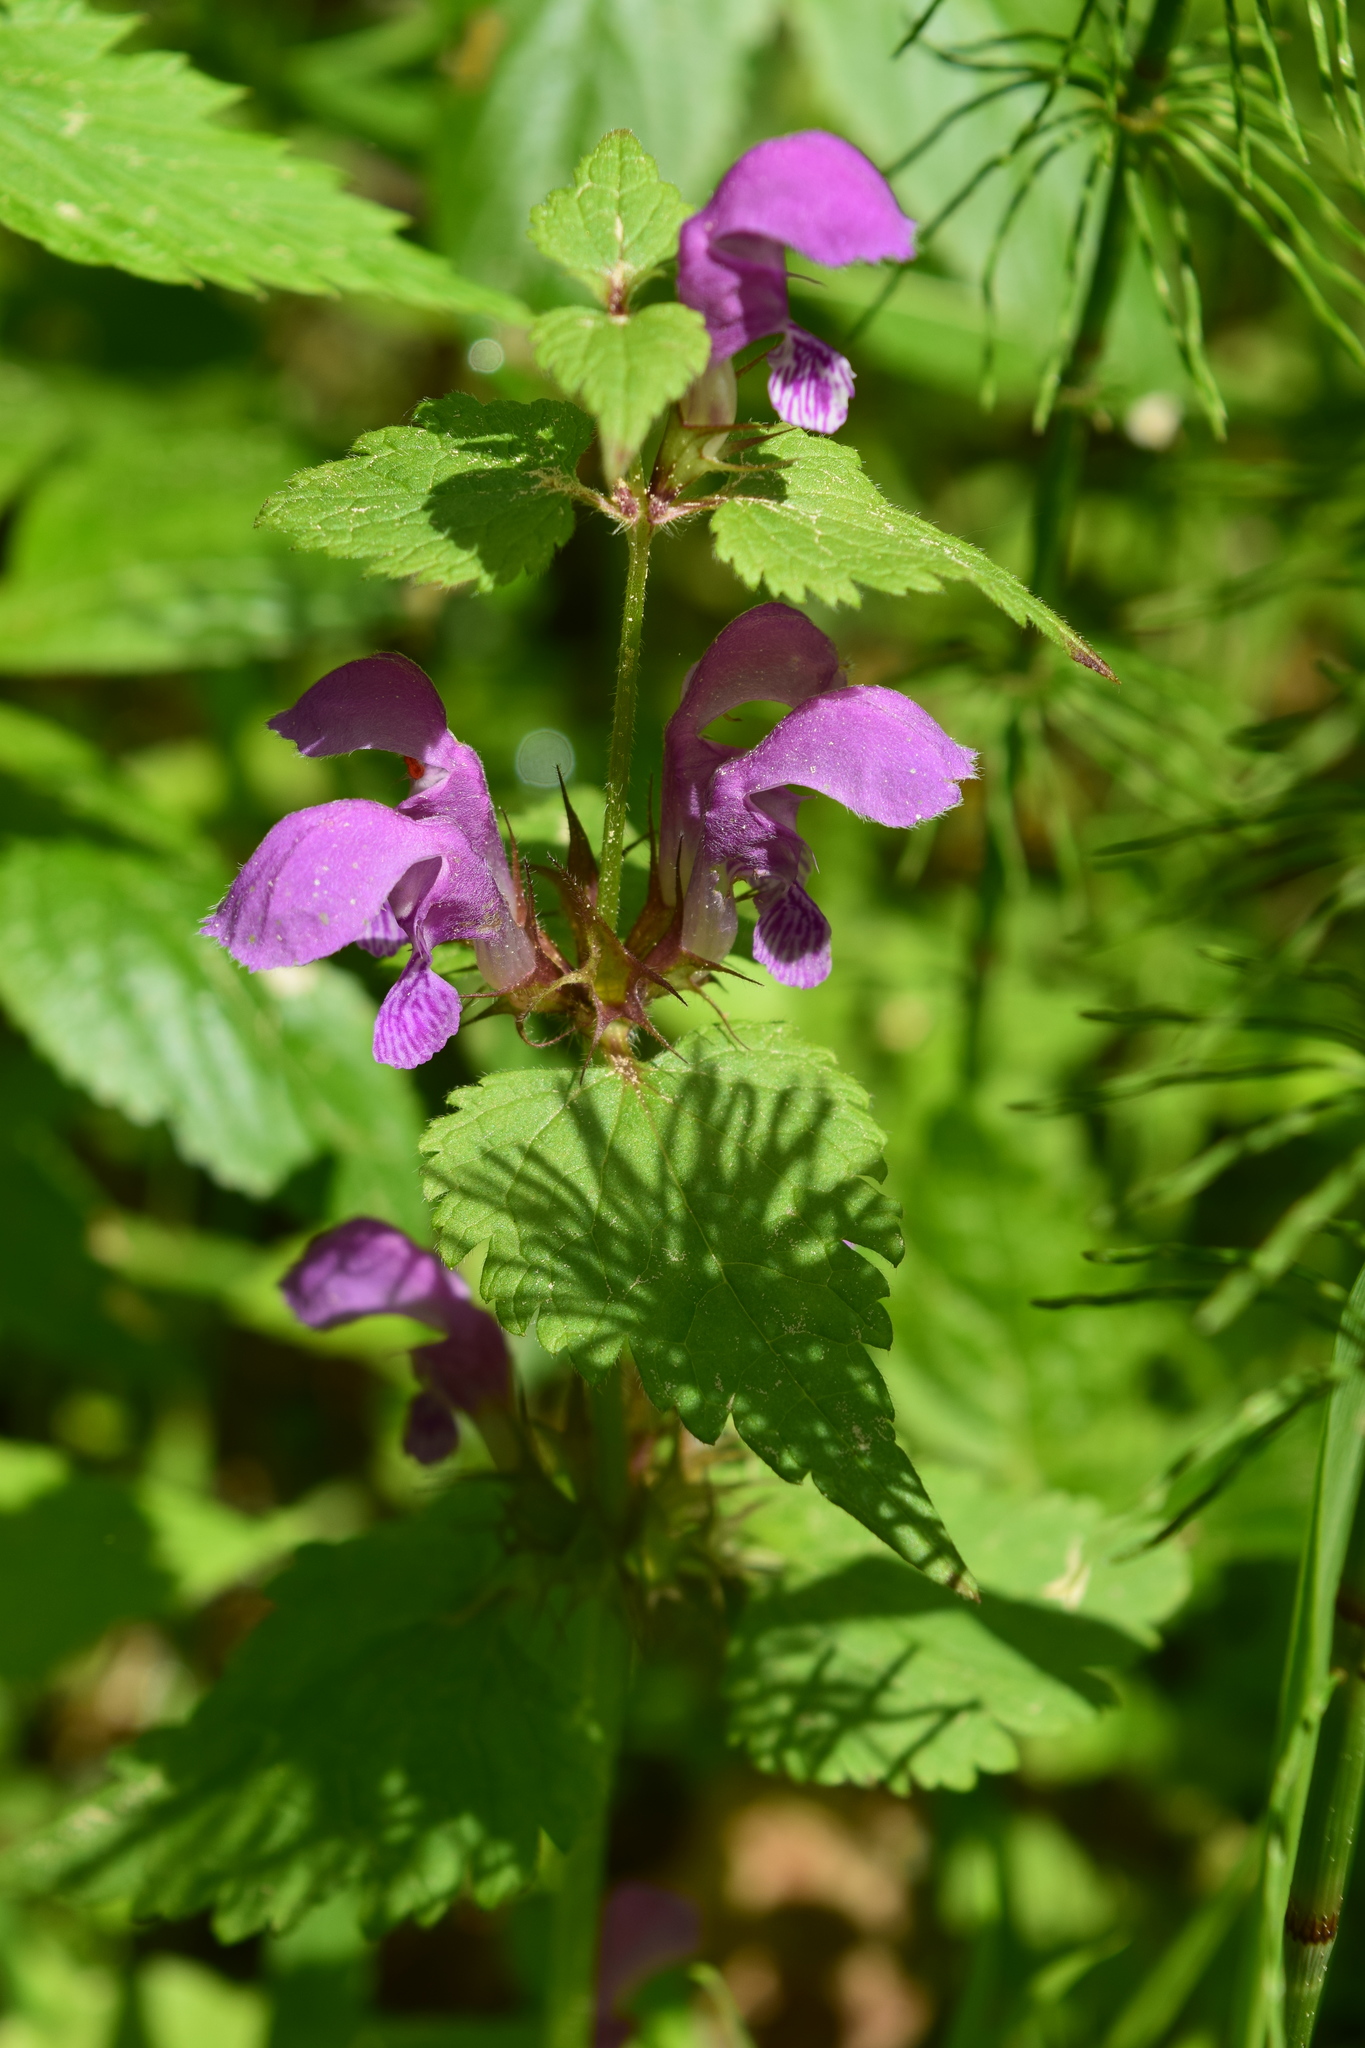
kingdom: Plantae
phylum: Tracheophyta
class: Magnoliopsida
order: Lamiales
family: Lamiaceae
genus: Lamium
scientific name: Lamium maculatum
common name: Spotted dead-nettle
